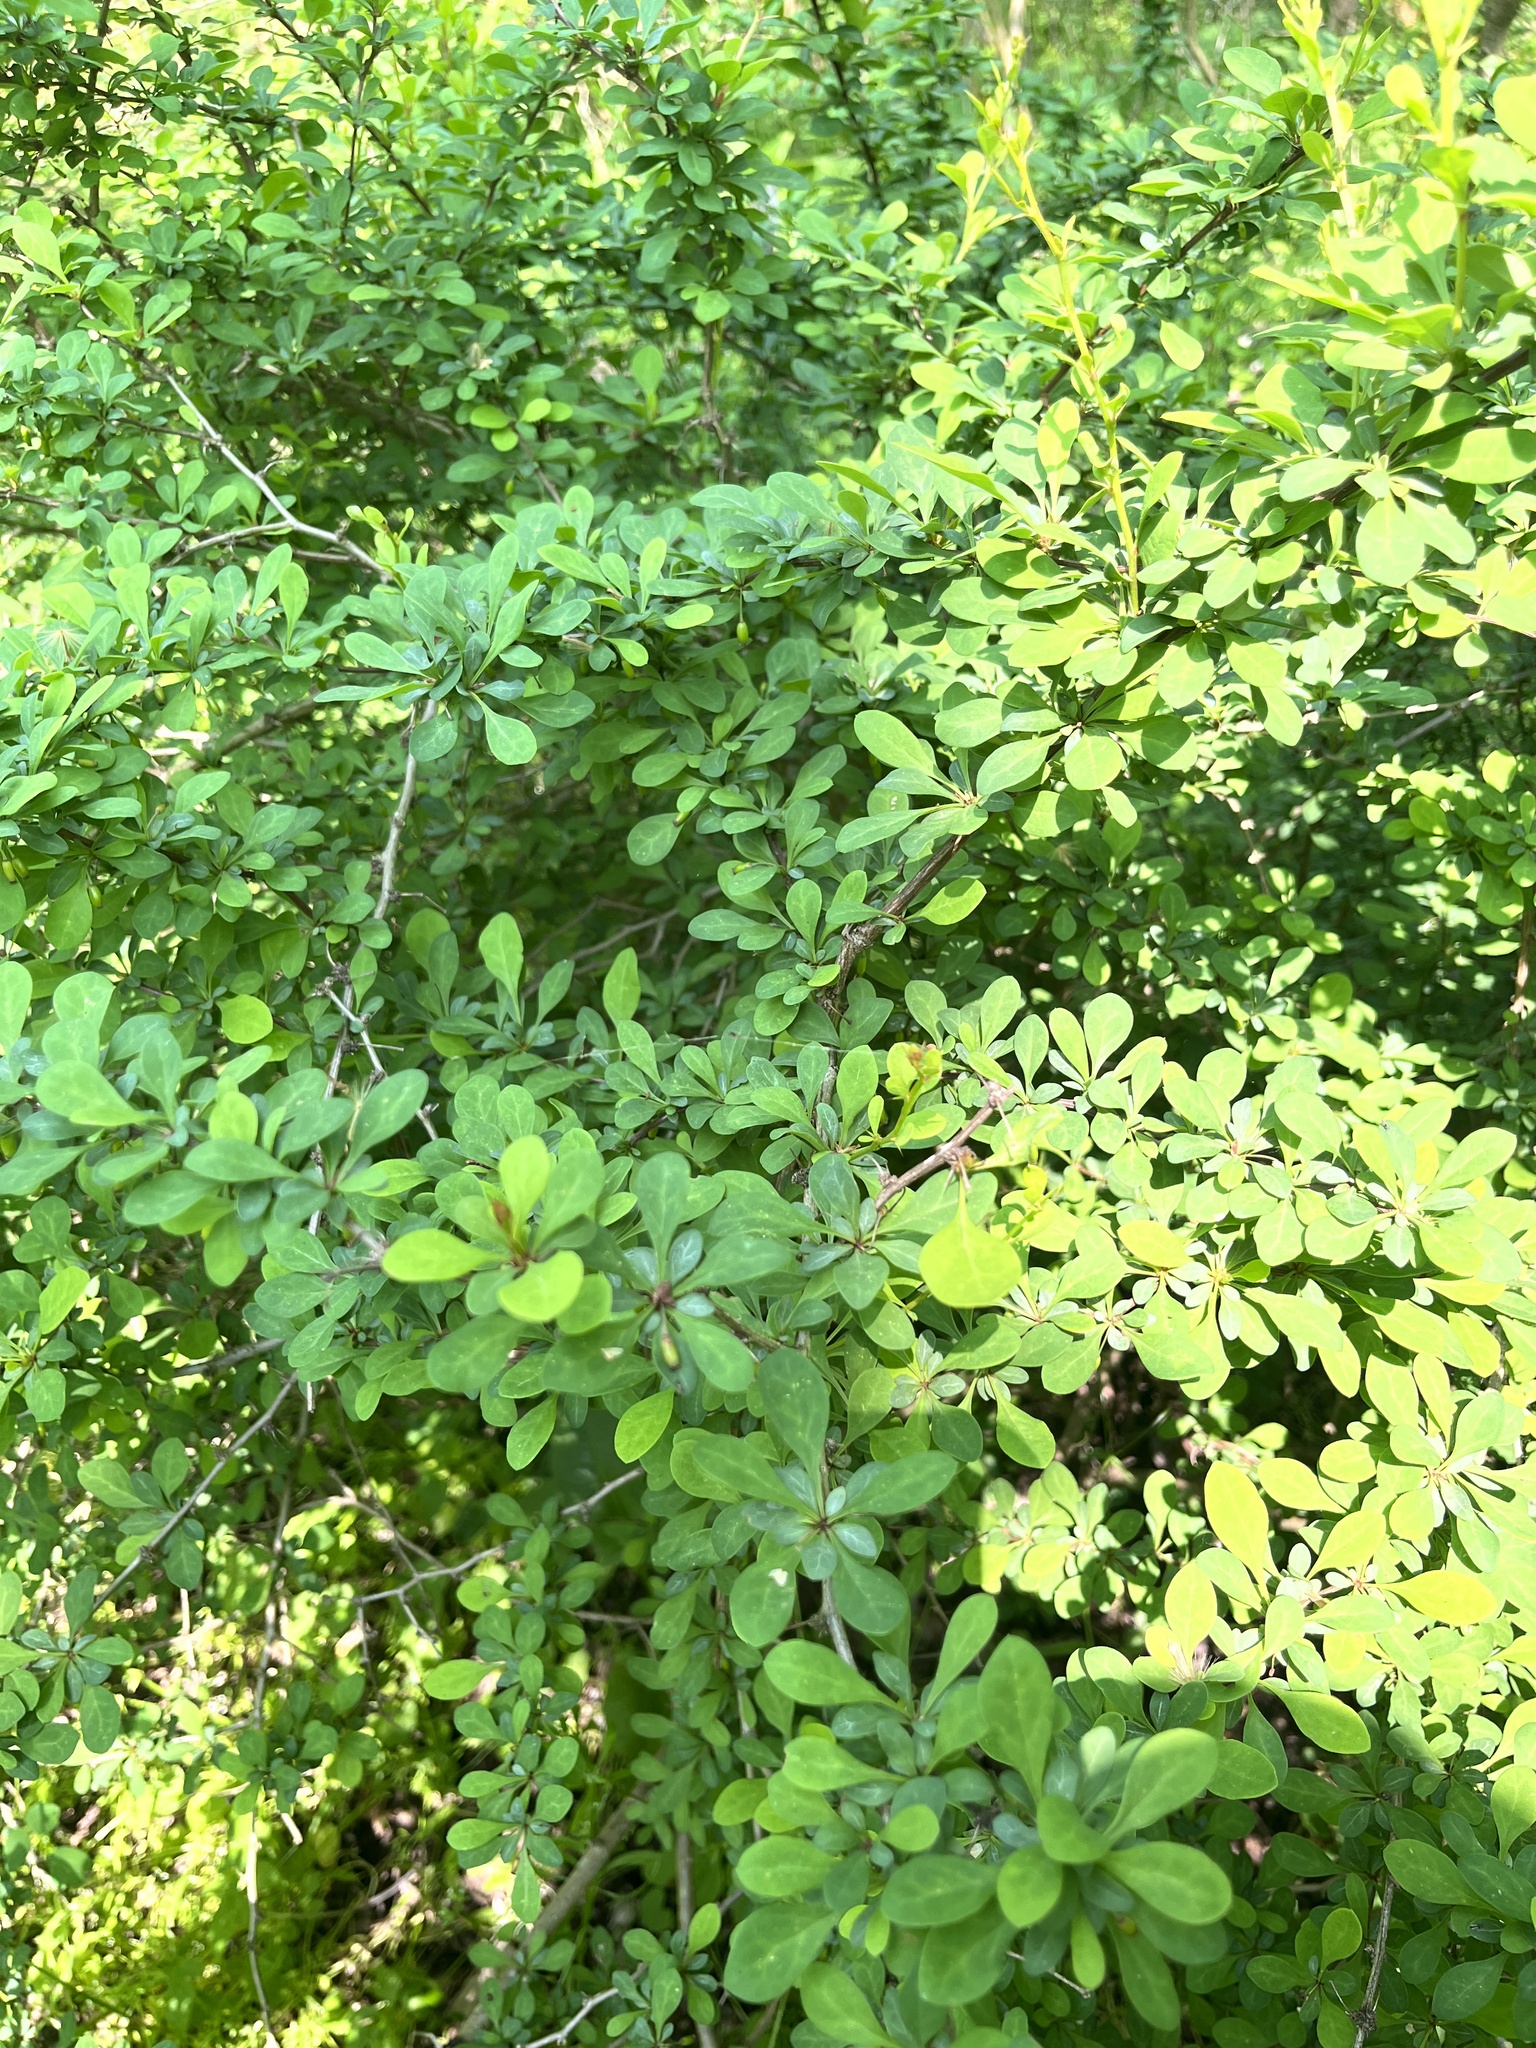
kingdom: Plantae
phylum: Tracheophyta
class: Magnoliopsida
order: Ranunculales
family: Berberidaceae
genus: Berberis
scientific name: Berberis thunbergii
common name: Japanese barberry
